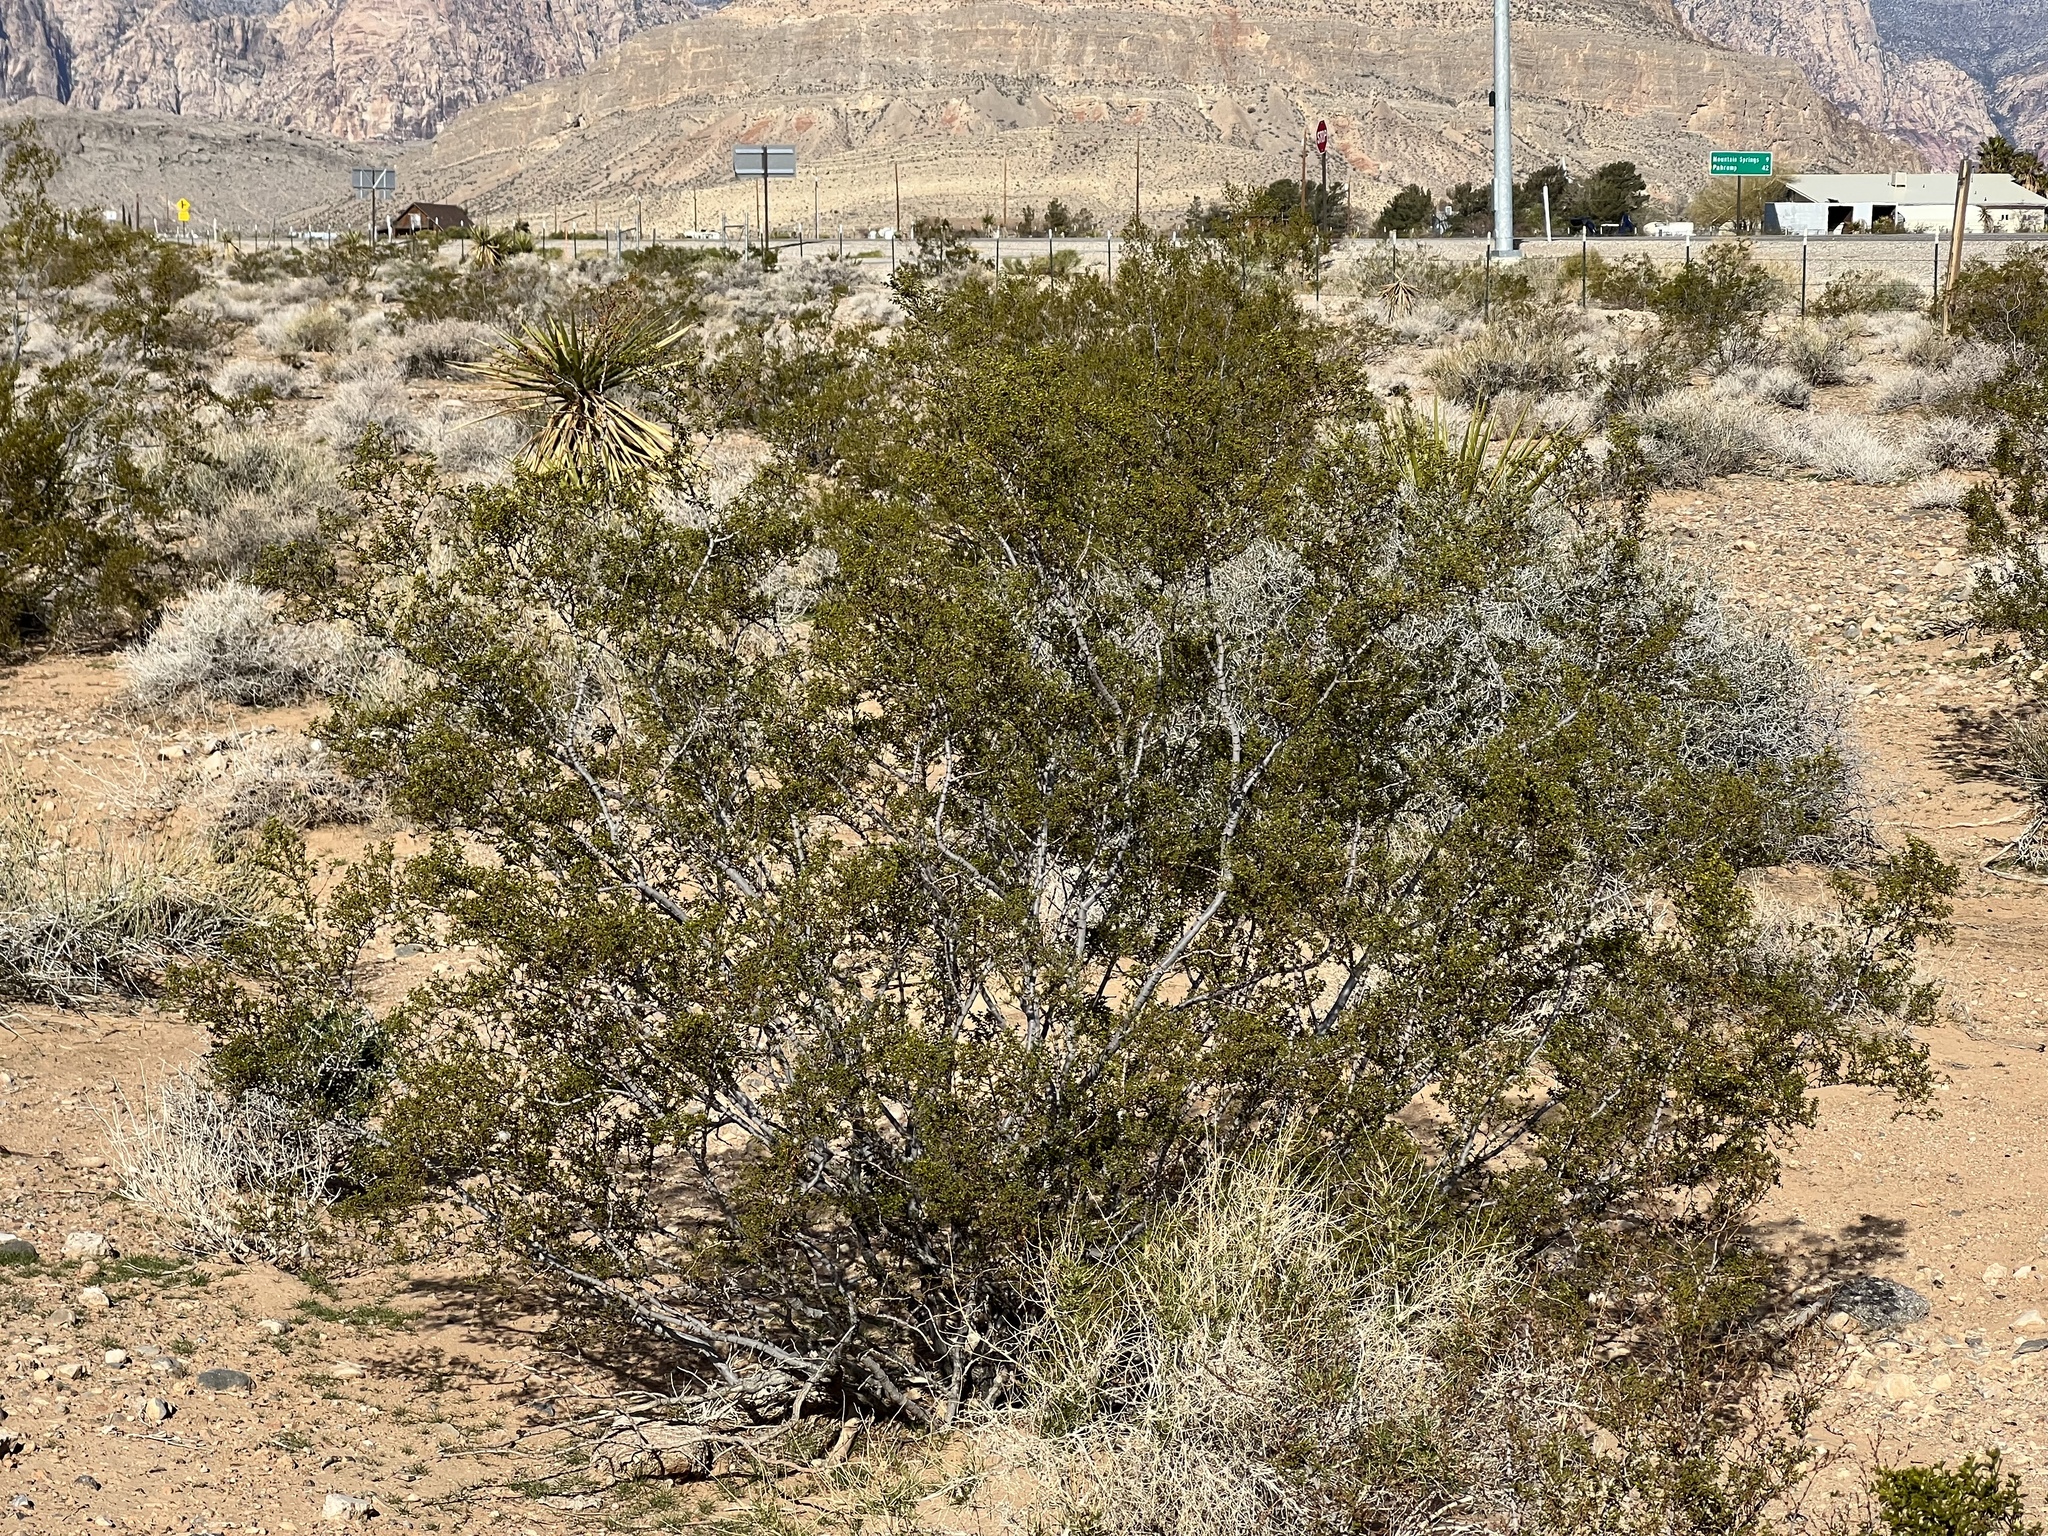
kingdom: Plantae
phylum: Tracheophyta
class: Magnoliopsida
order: Zygophyllales
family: Zygophyllaceae
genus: Larrea
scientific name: Larrea tridentata
